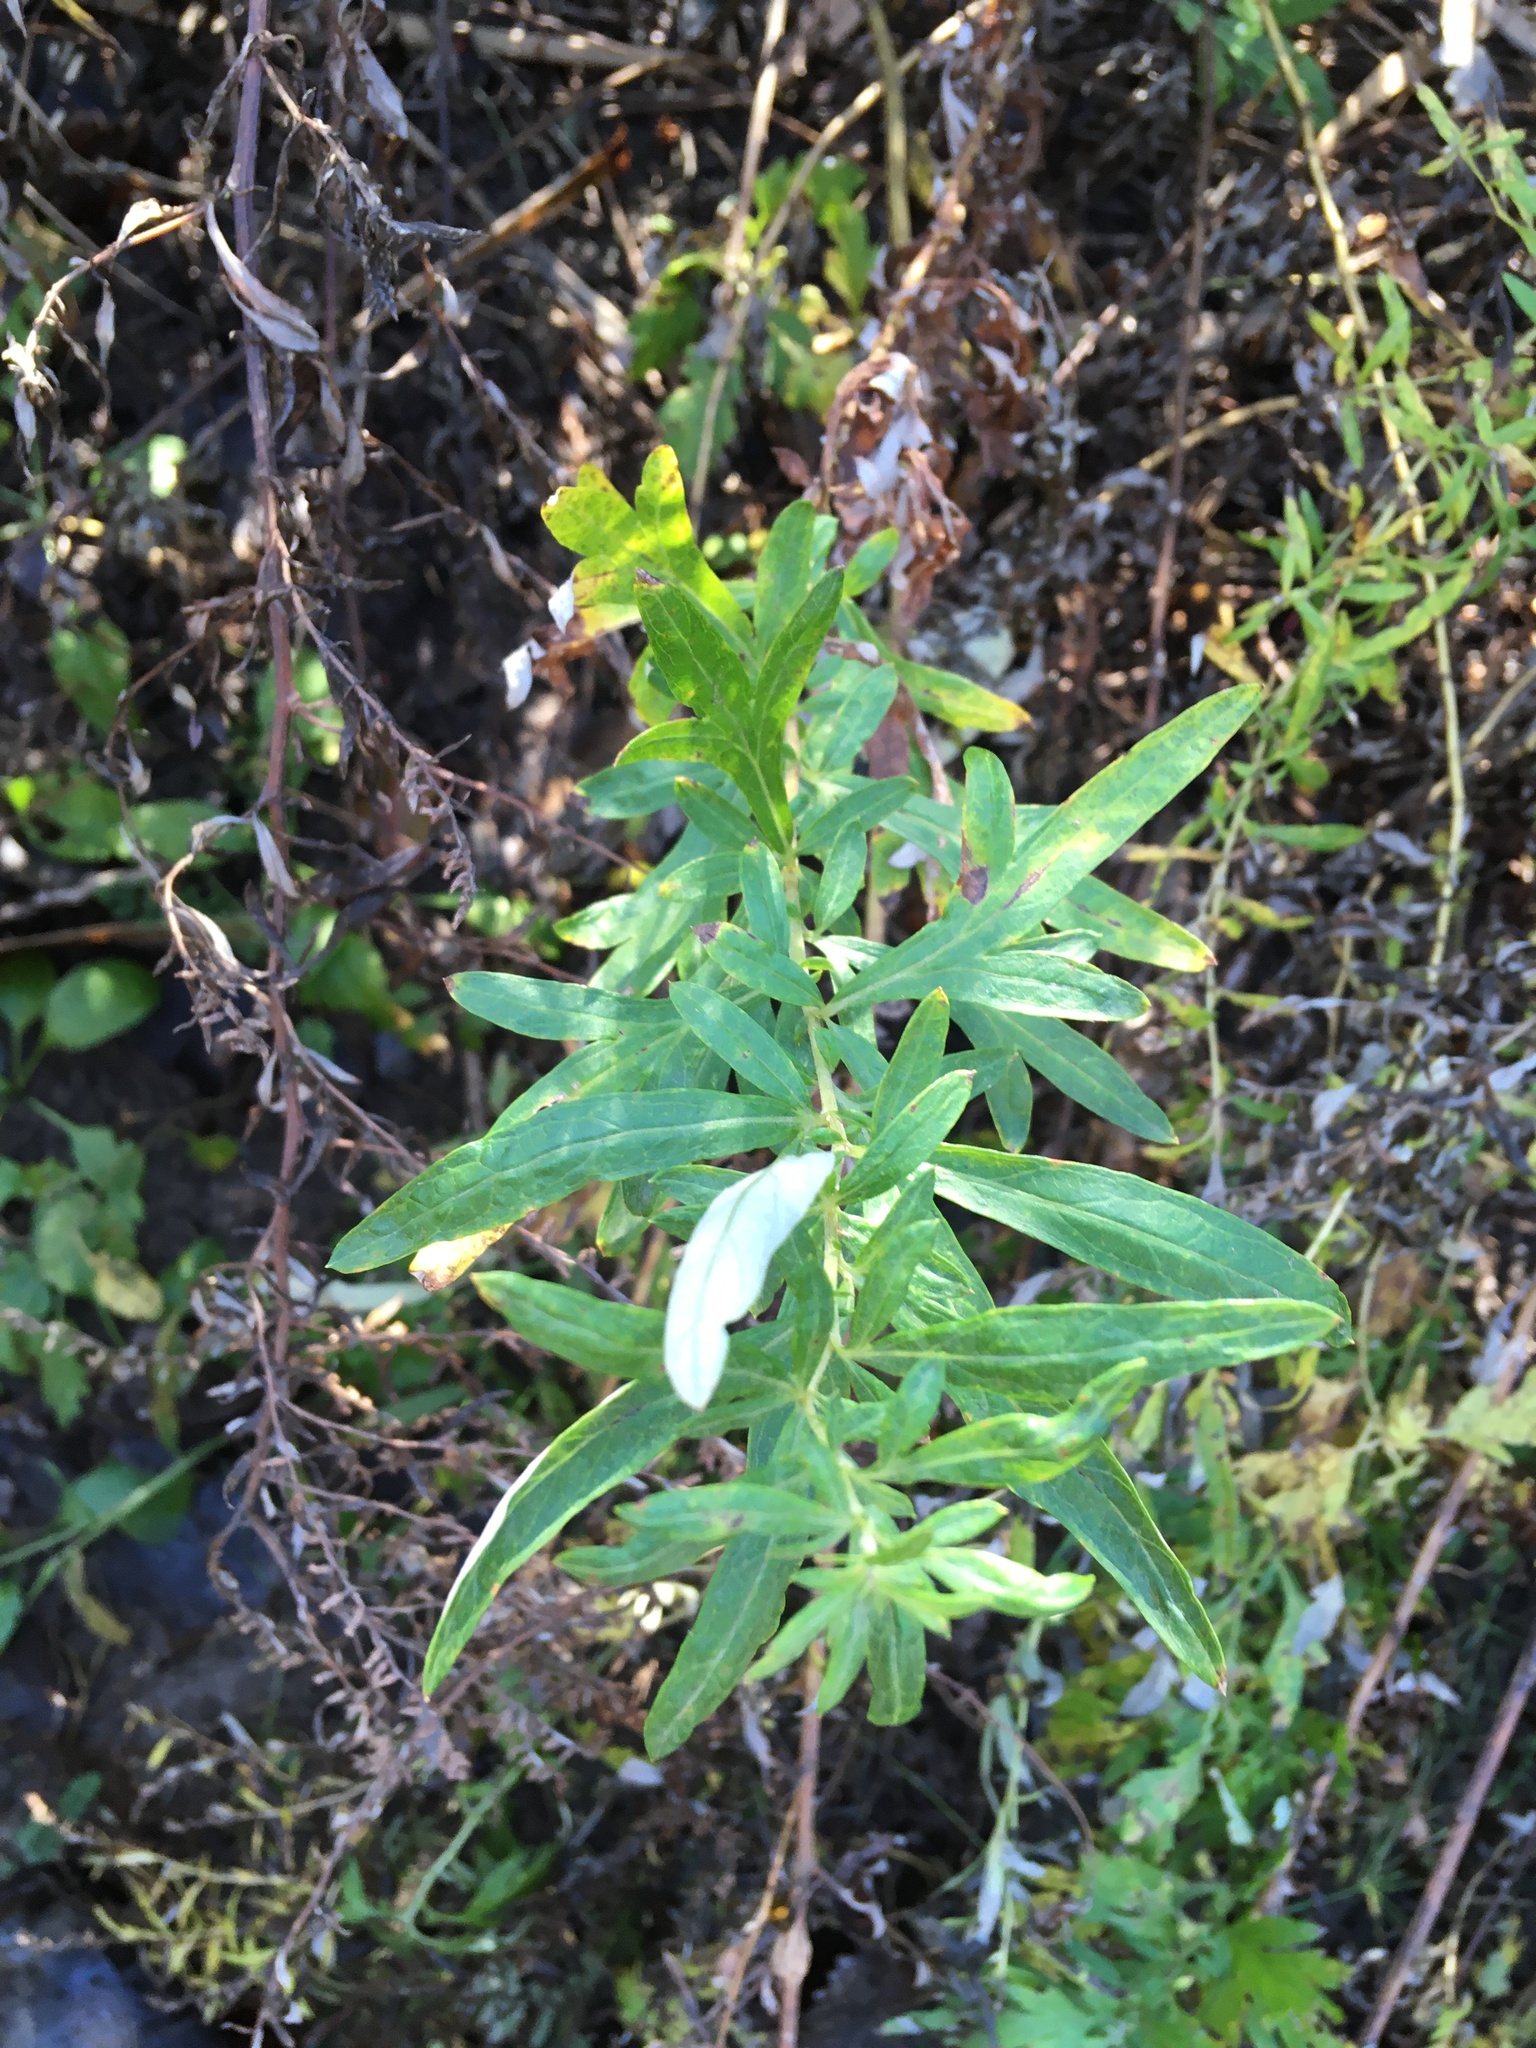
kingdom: Plantae
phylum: Tracheophyta
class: Magnoliopsida
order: Asterales
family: Asteraceae
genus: Artemisia
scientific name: Artemisia vulgaris
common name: Mugwort
